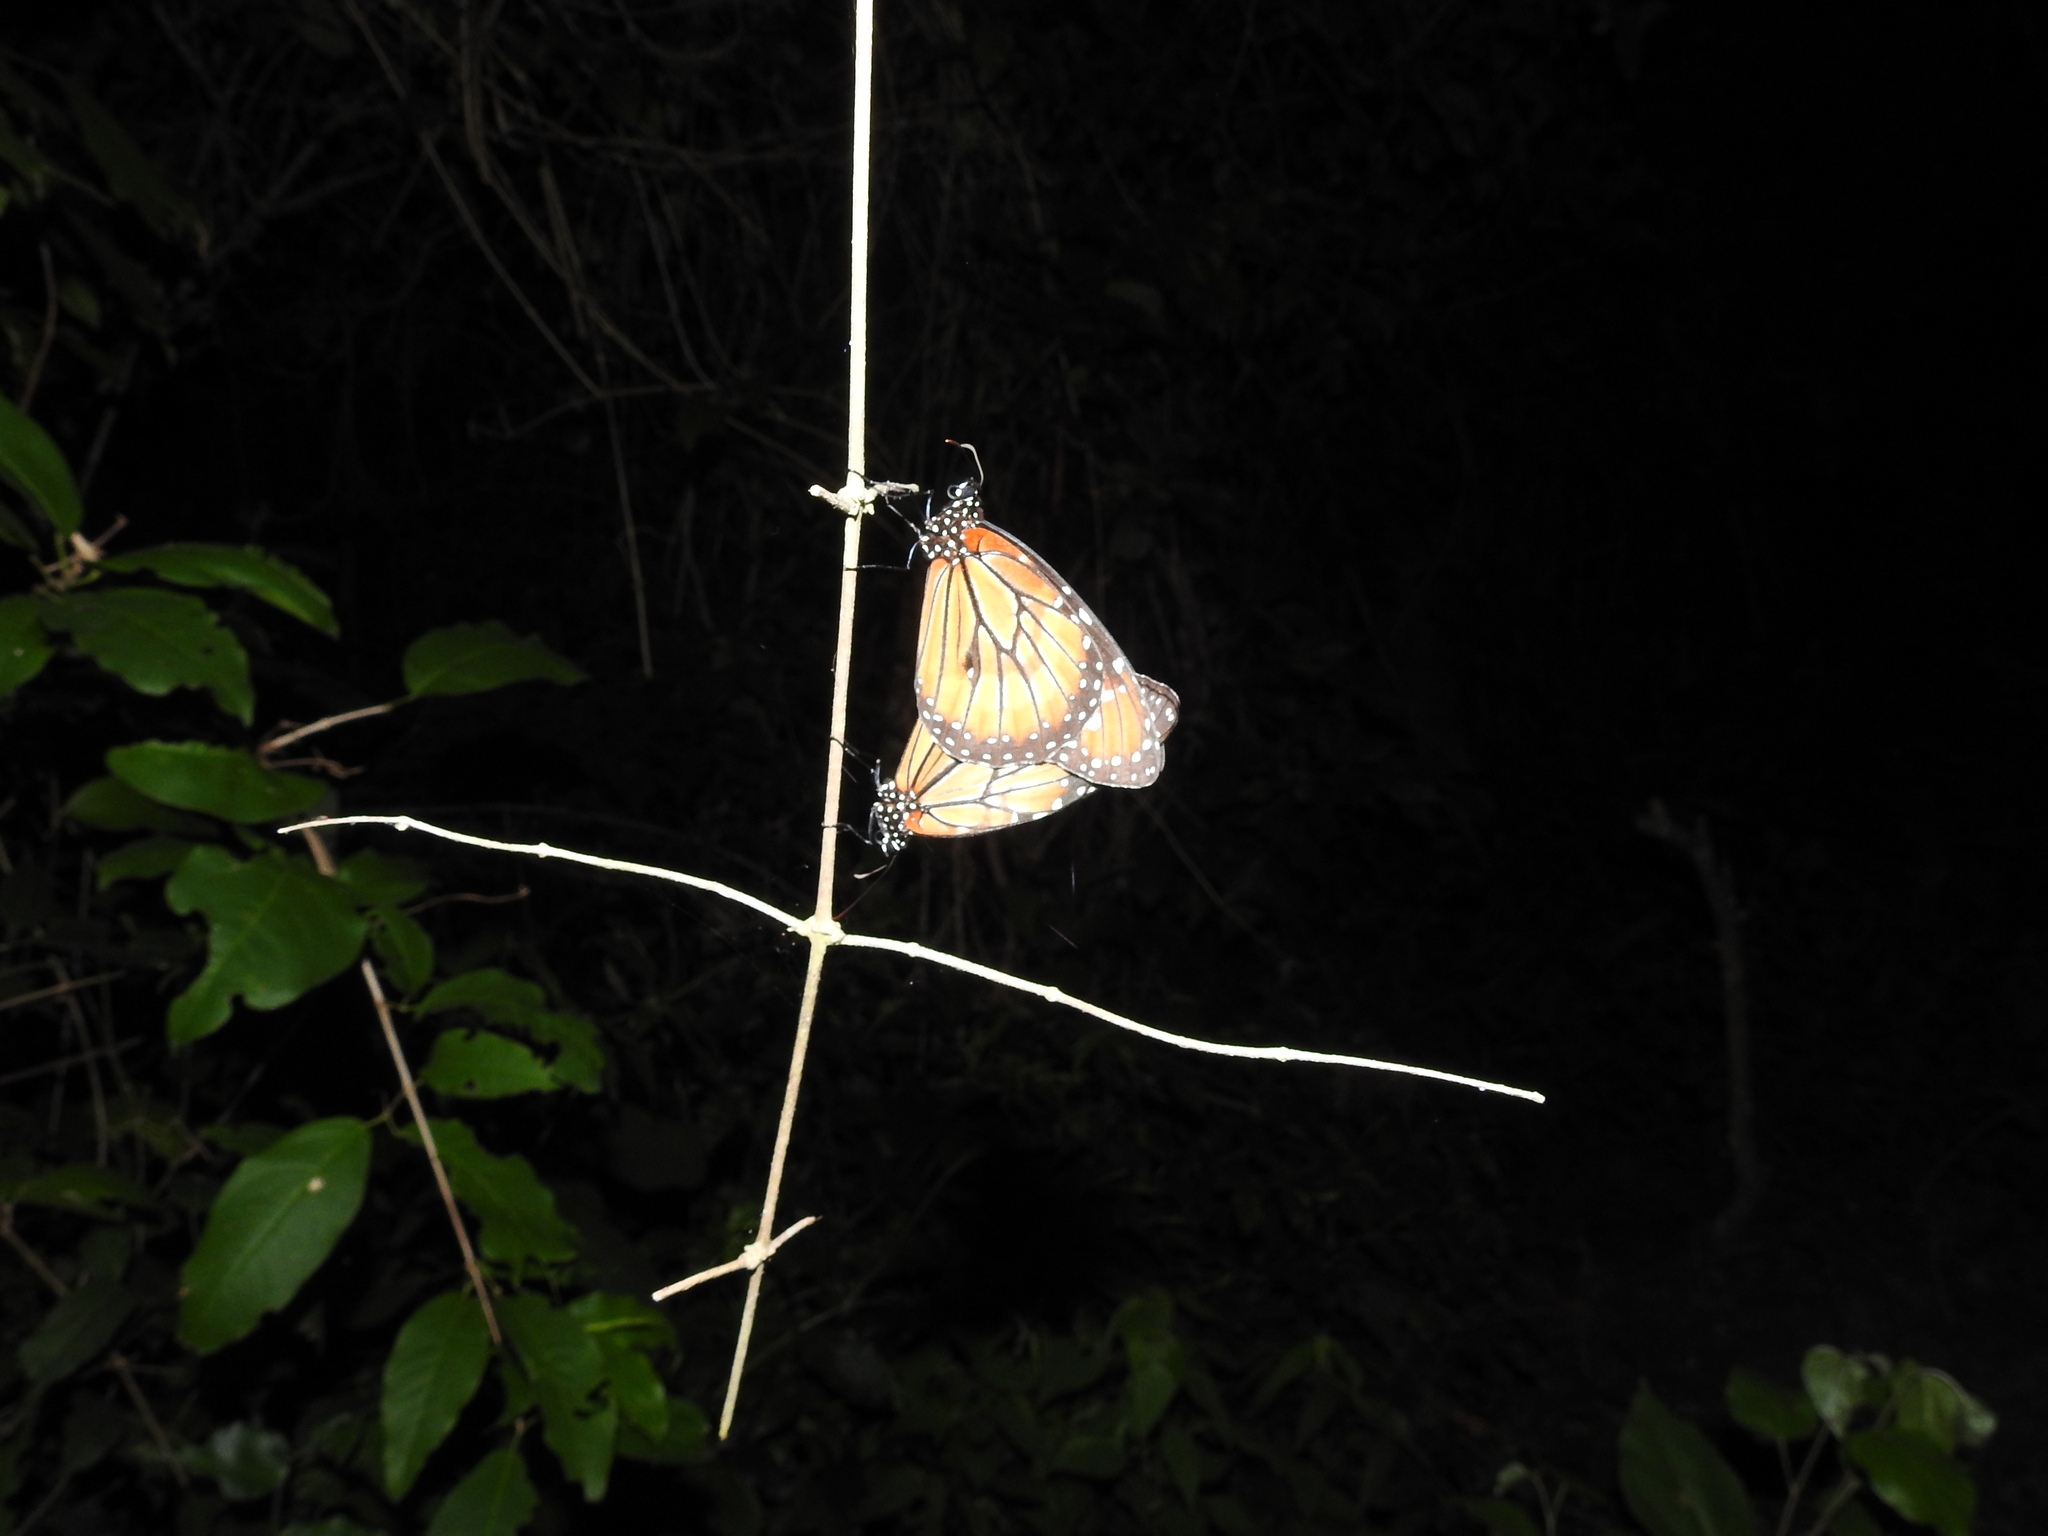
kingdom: Animalia
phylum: Arthropoda
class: Insecta
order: Lepidoptera
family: Nymphalidae
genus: Danaus
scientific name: Danaus eresimus
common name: Soldier
